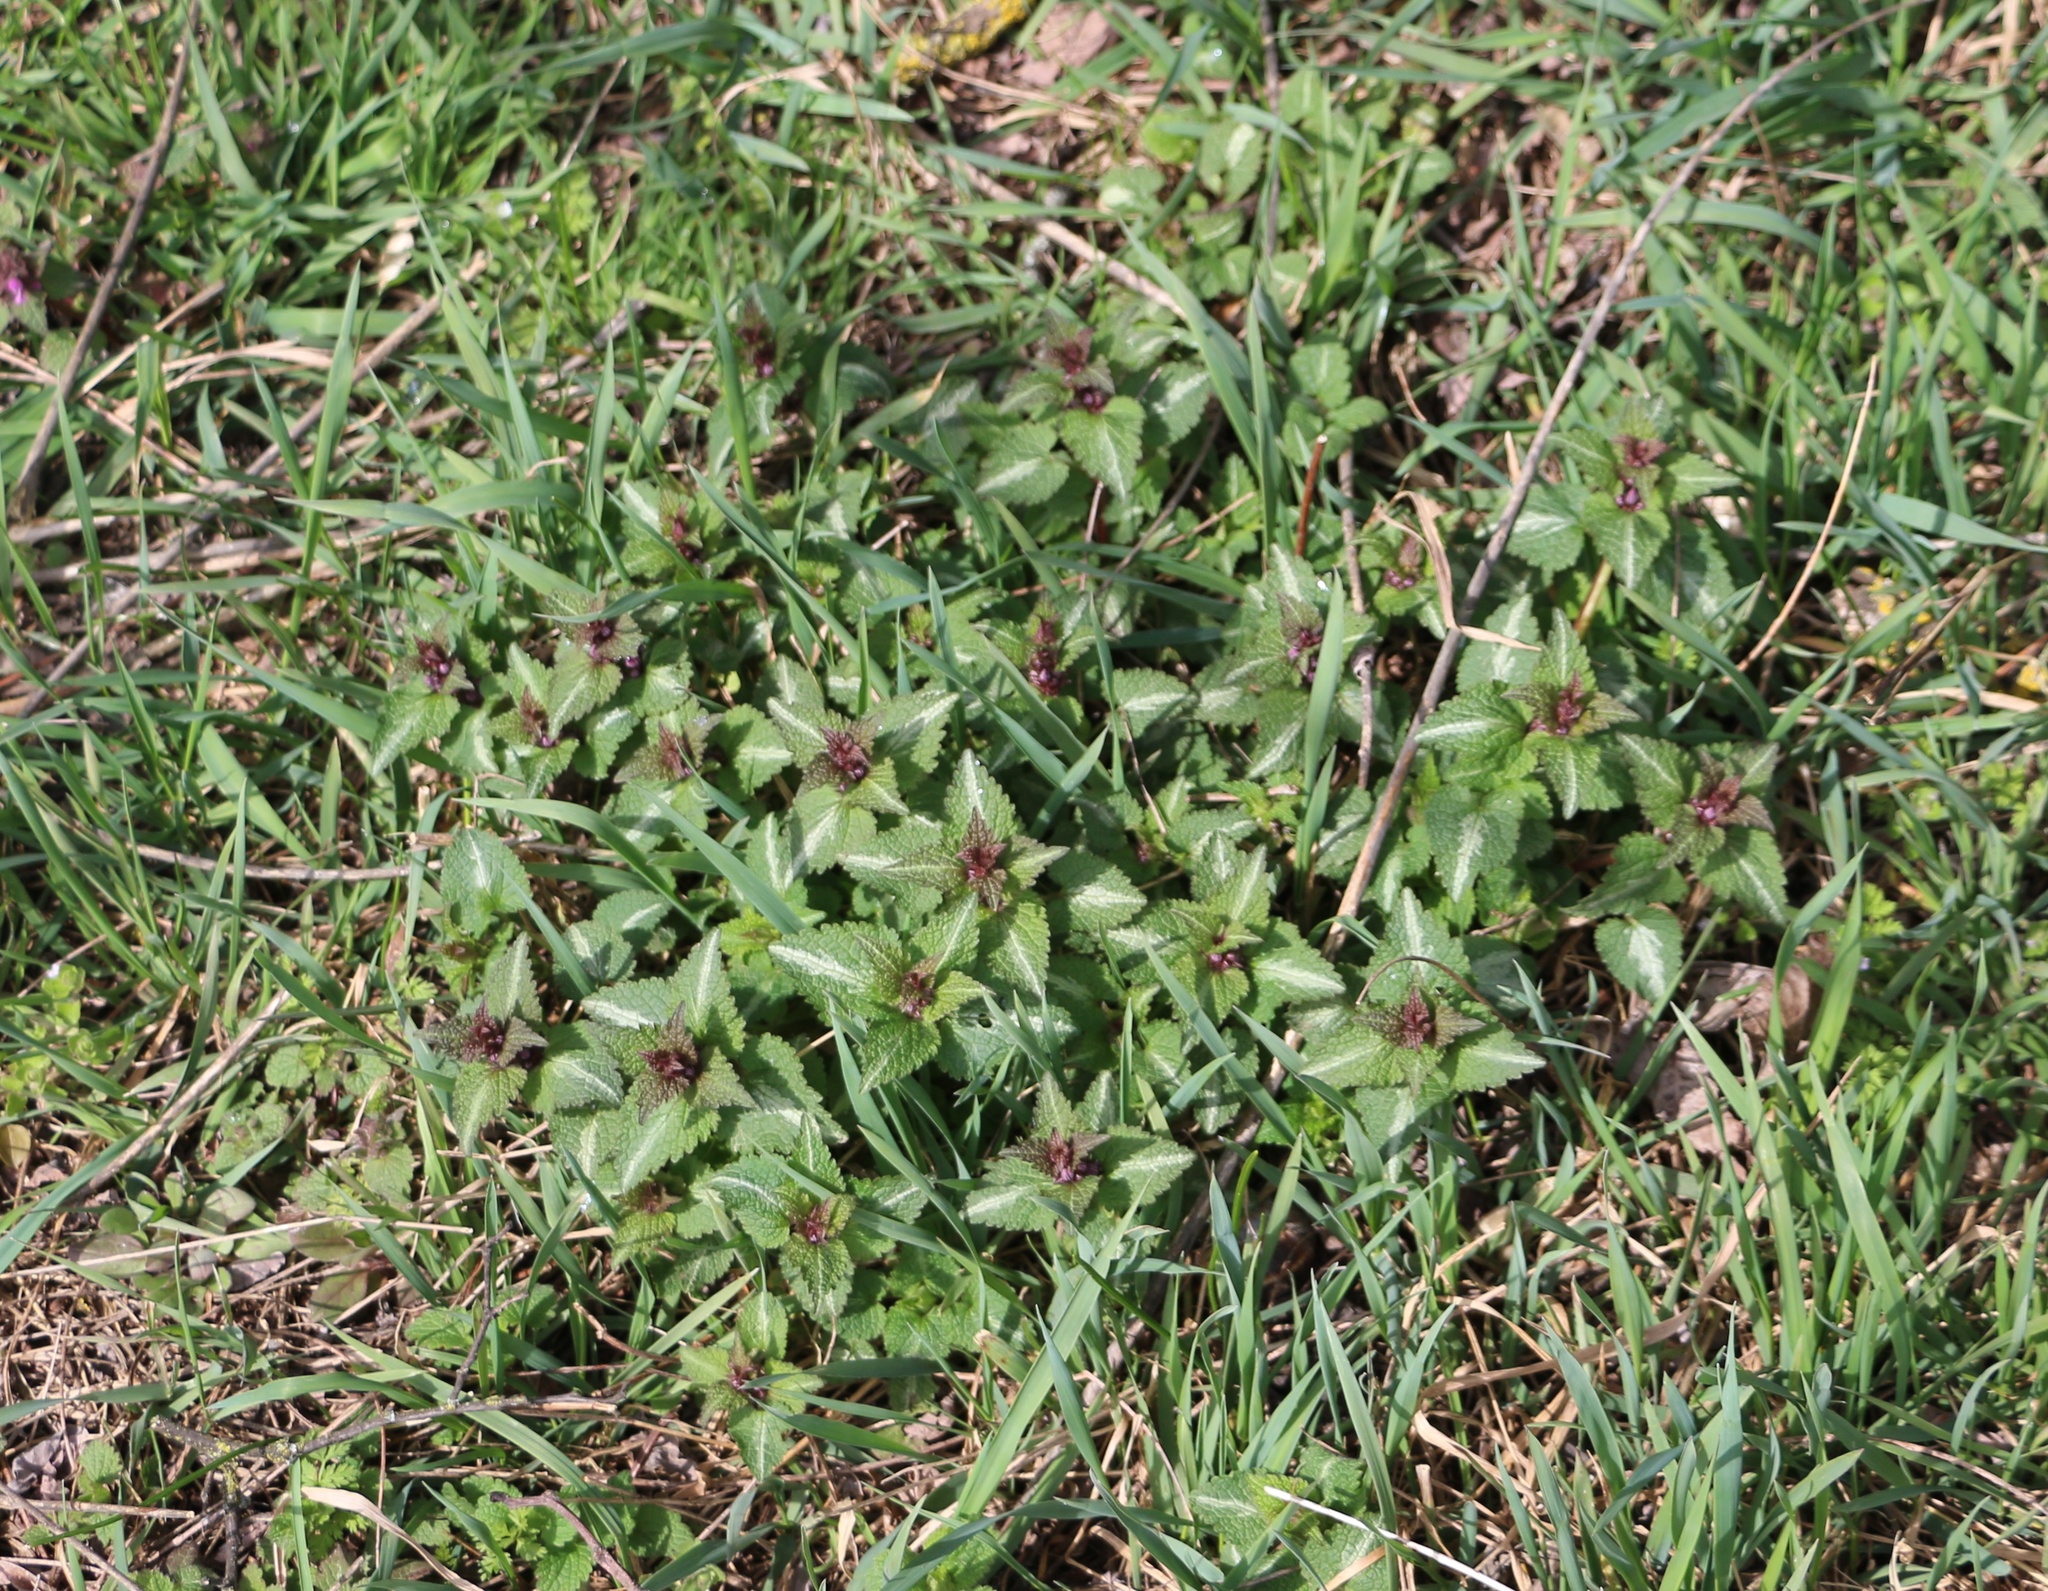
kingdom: Plantae
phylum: Tracheophyta
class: Magnoliopsida
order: Lamiales
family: Lamiaceae
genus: Lamium
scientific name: Lamium maculatum
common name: Spotted dead-nettle
